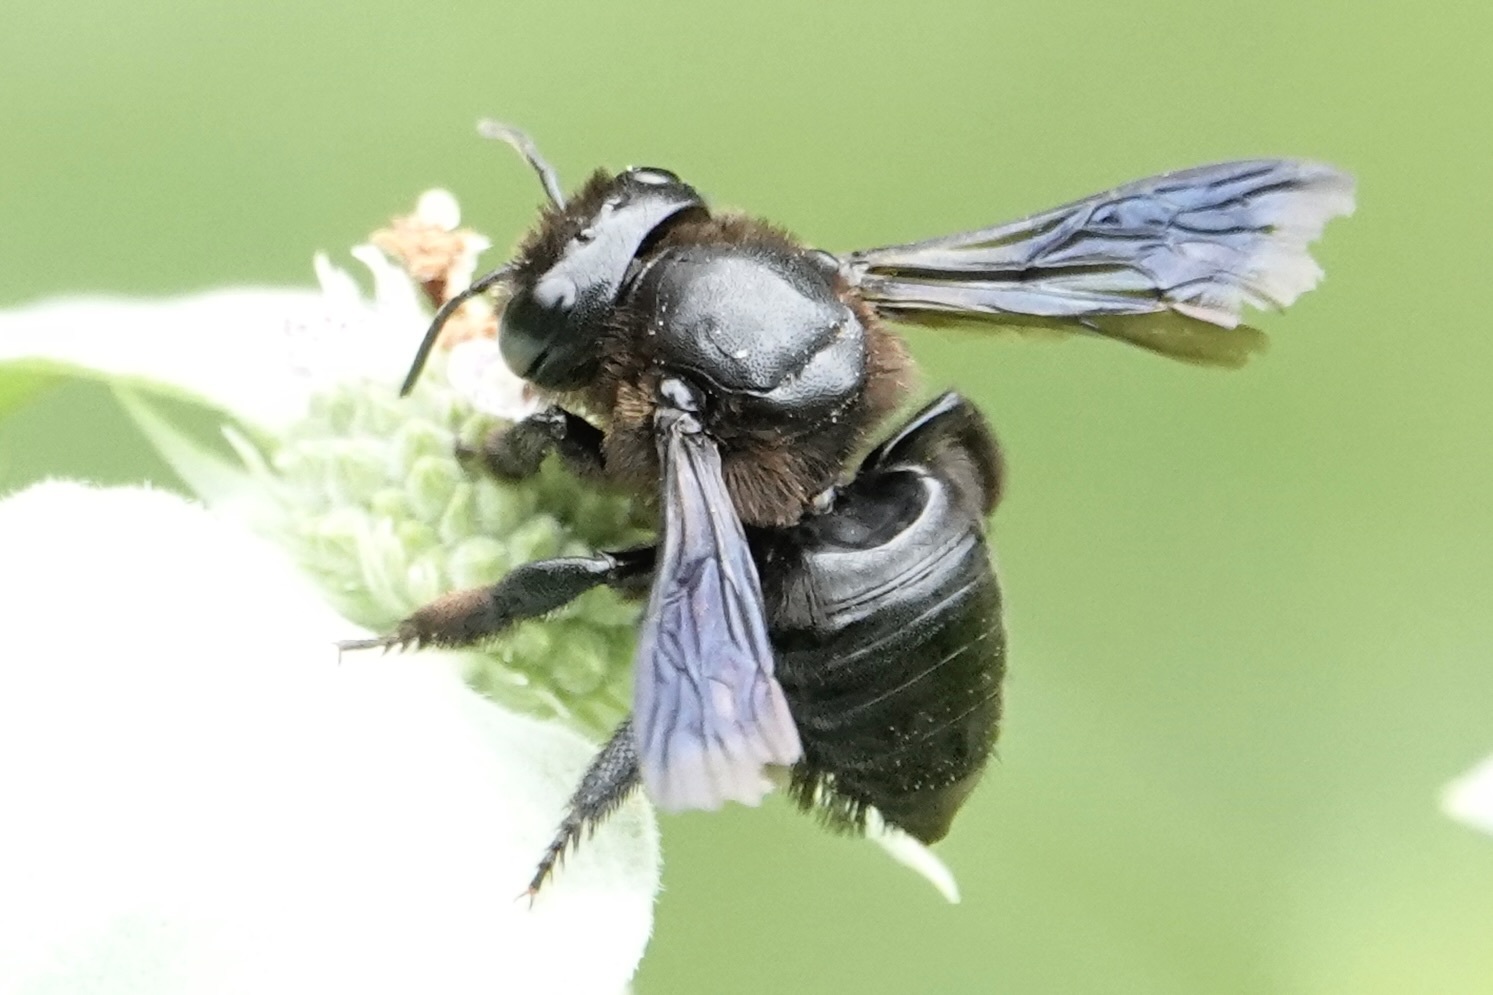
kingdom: Animalia
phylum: Arthropoda
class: Insecta
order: Hymenoptera
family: Megachilidae
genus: Megachile
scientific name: Megachile xylocopoides
